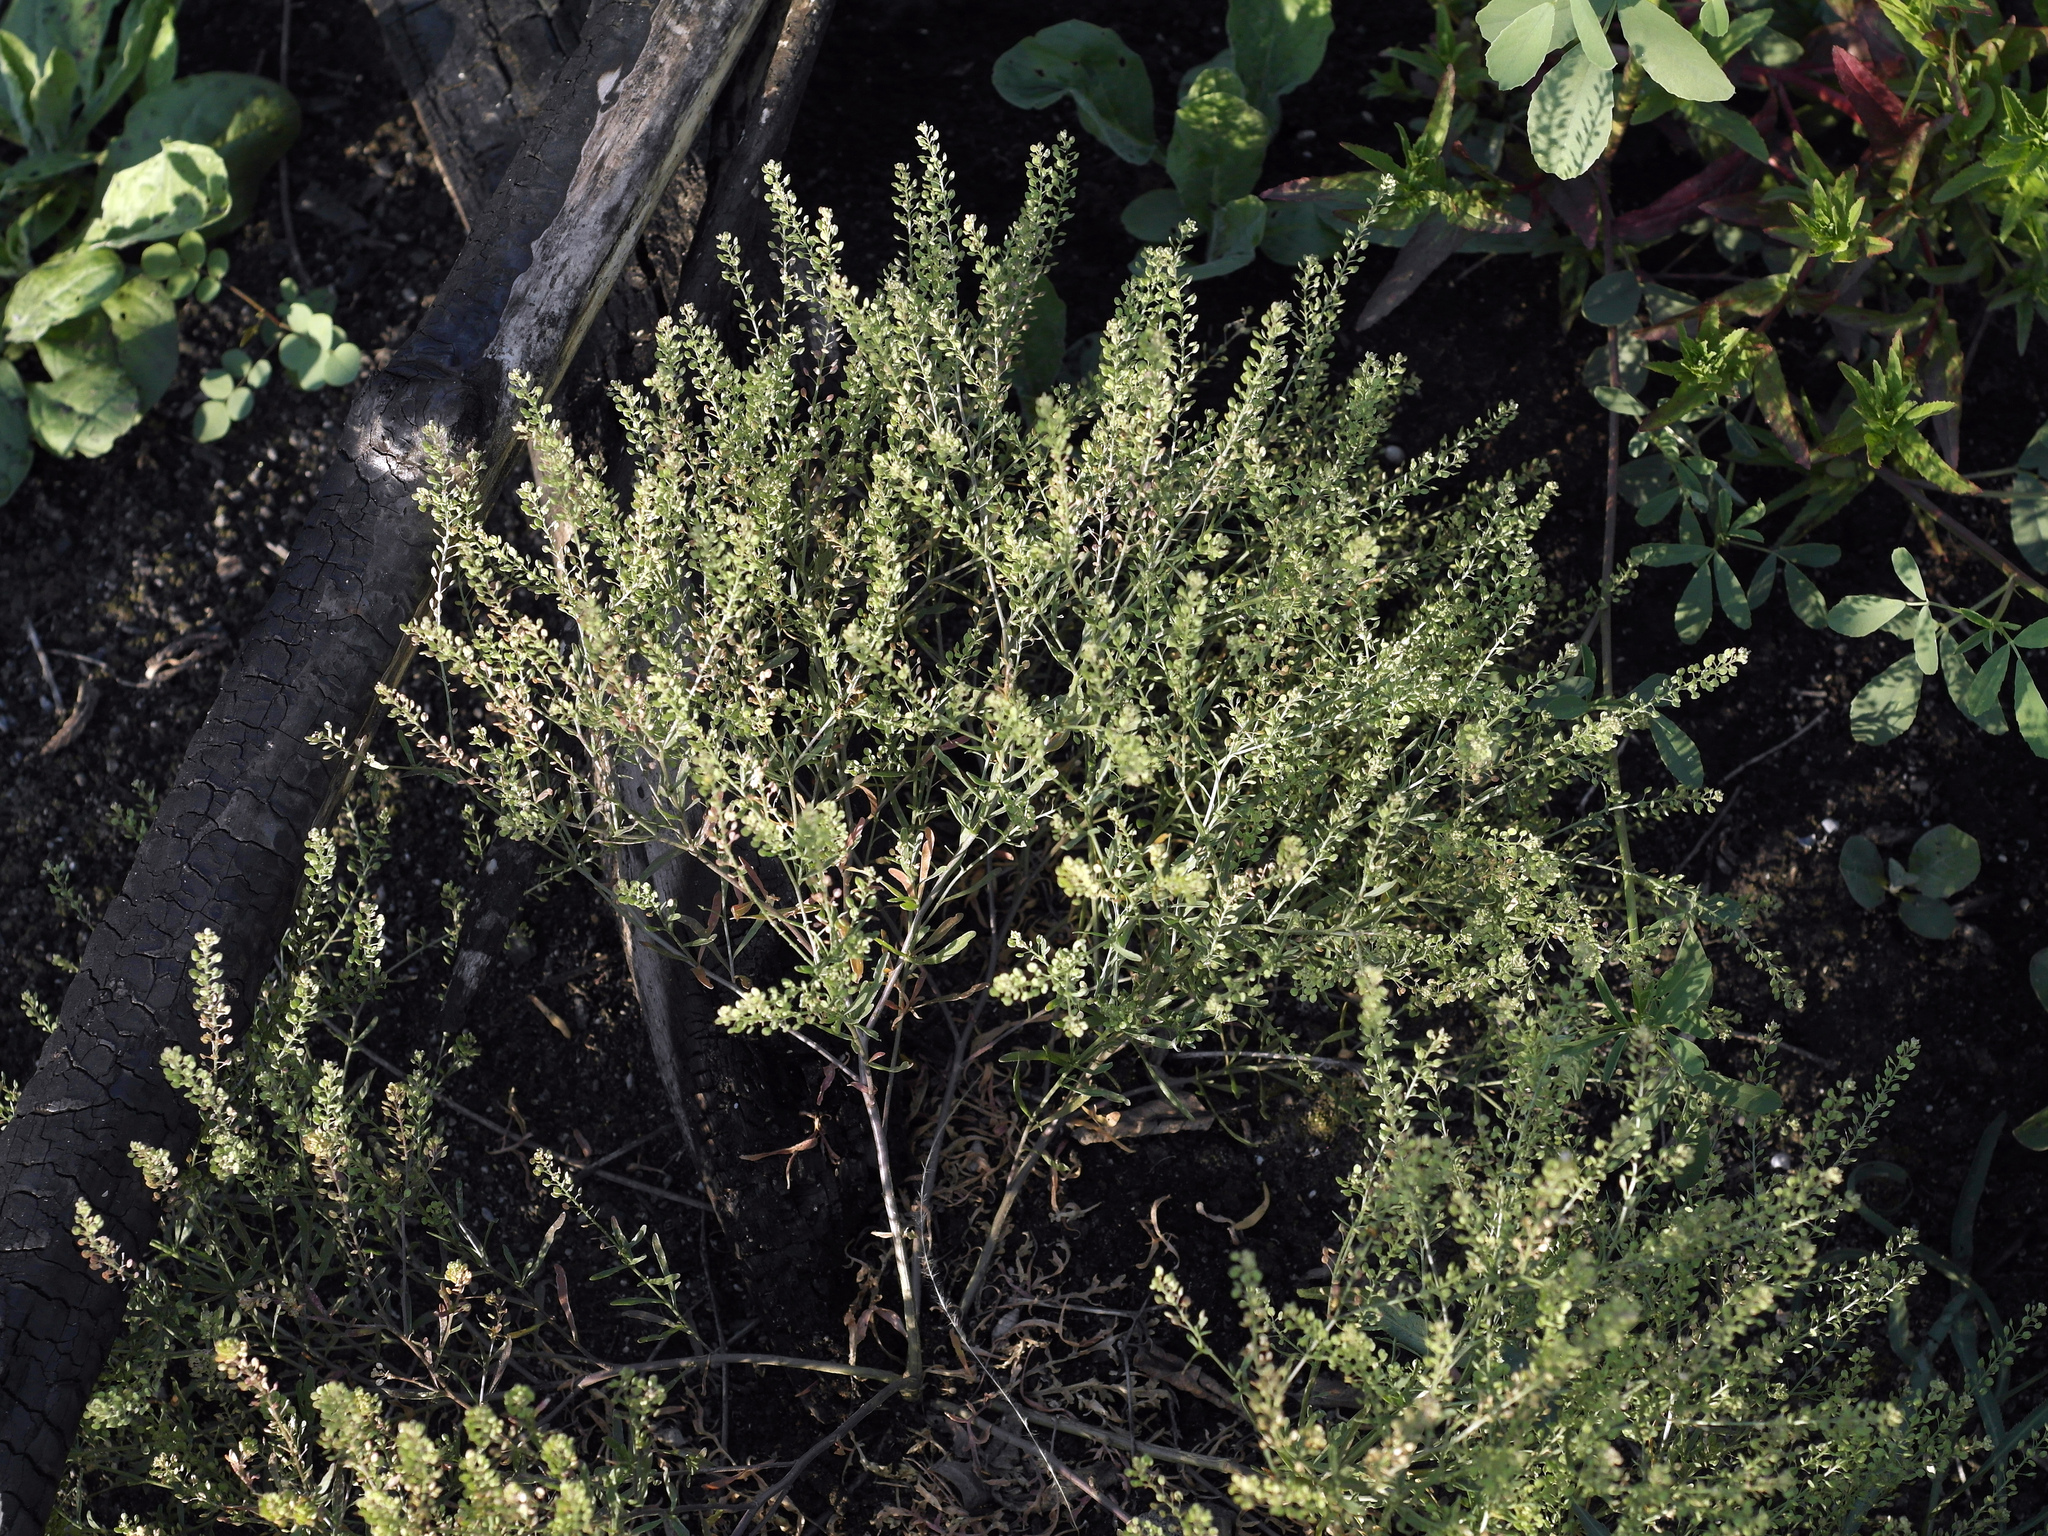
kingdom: Plantae
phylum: Tracheophyta
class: Magnoliopsida
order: Brassicales
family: Brassicaceae
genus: Lepidium
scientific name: Lepidium ruderale
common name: Narrow-leaved pepperwort
